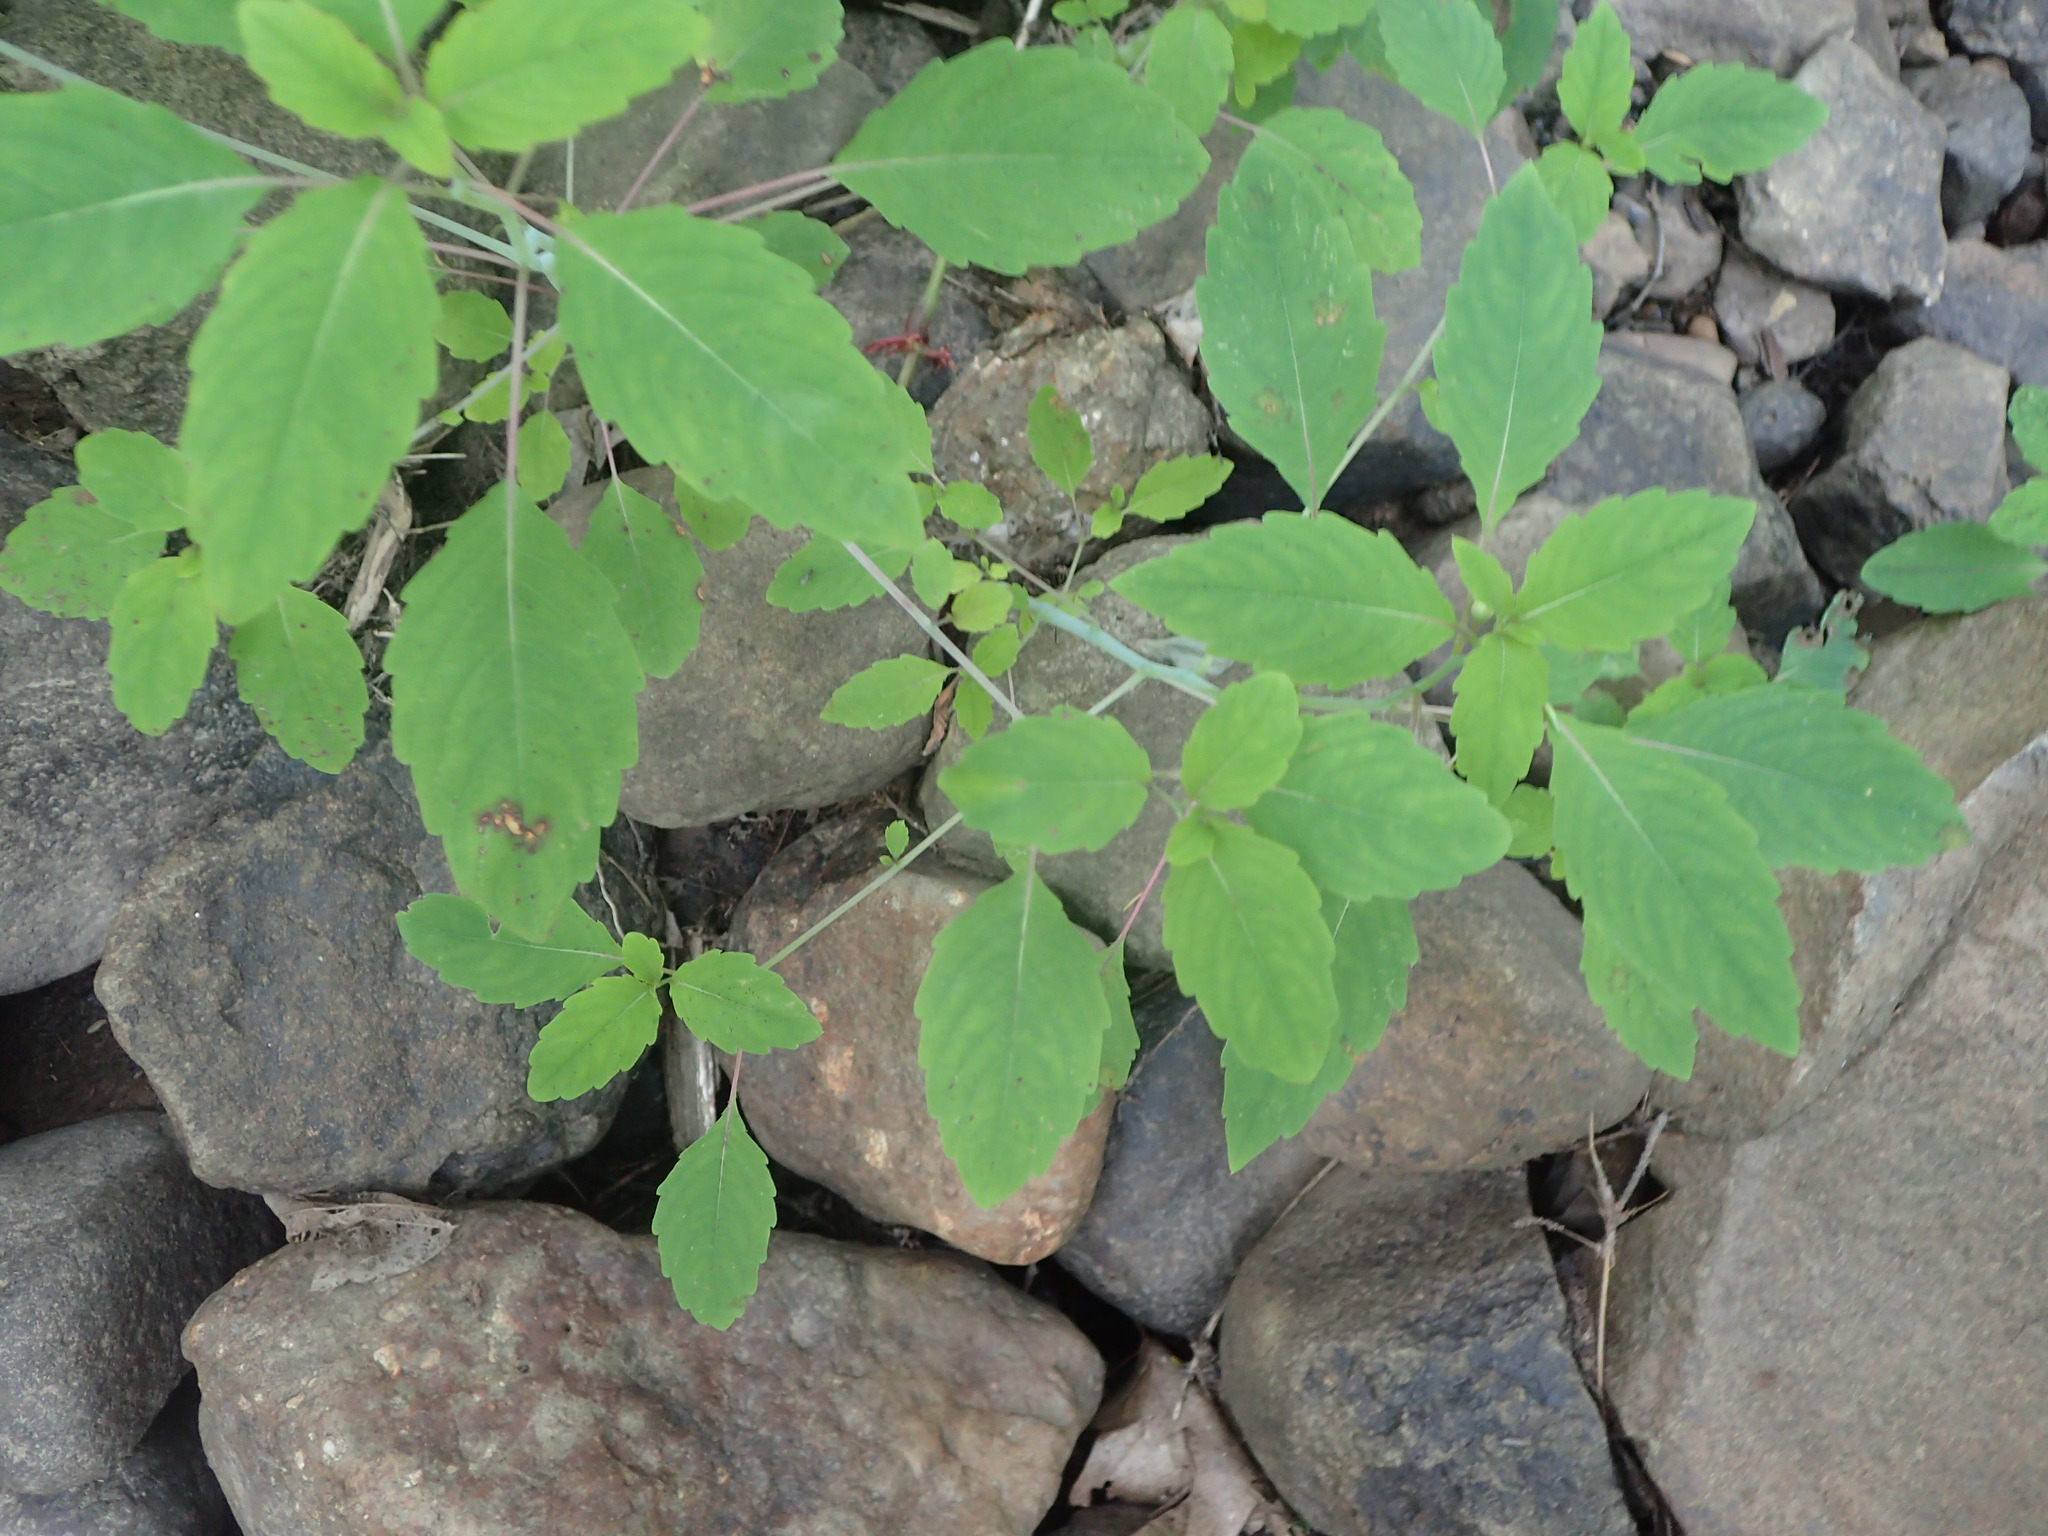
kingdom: Plantae
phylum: Tracheophyta
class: Magnoliopsida
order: Ericales
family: Balsaminaceae
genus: Impatiens
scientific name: Impatiens capensis
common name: Orange balsam
